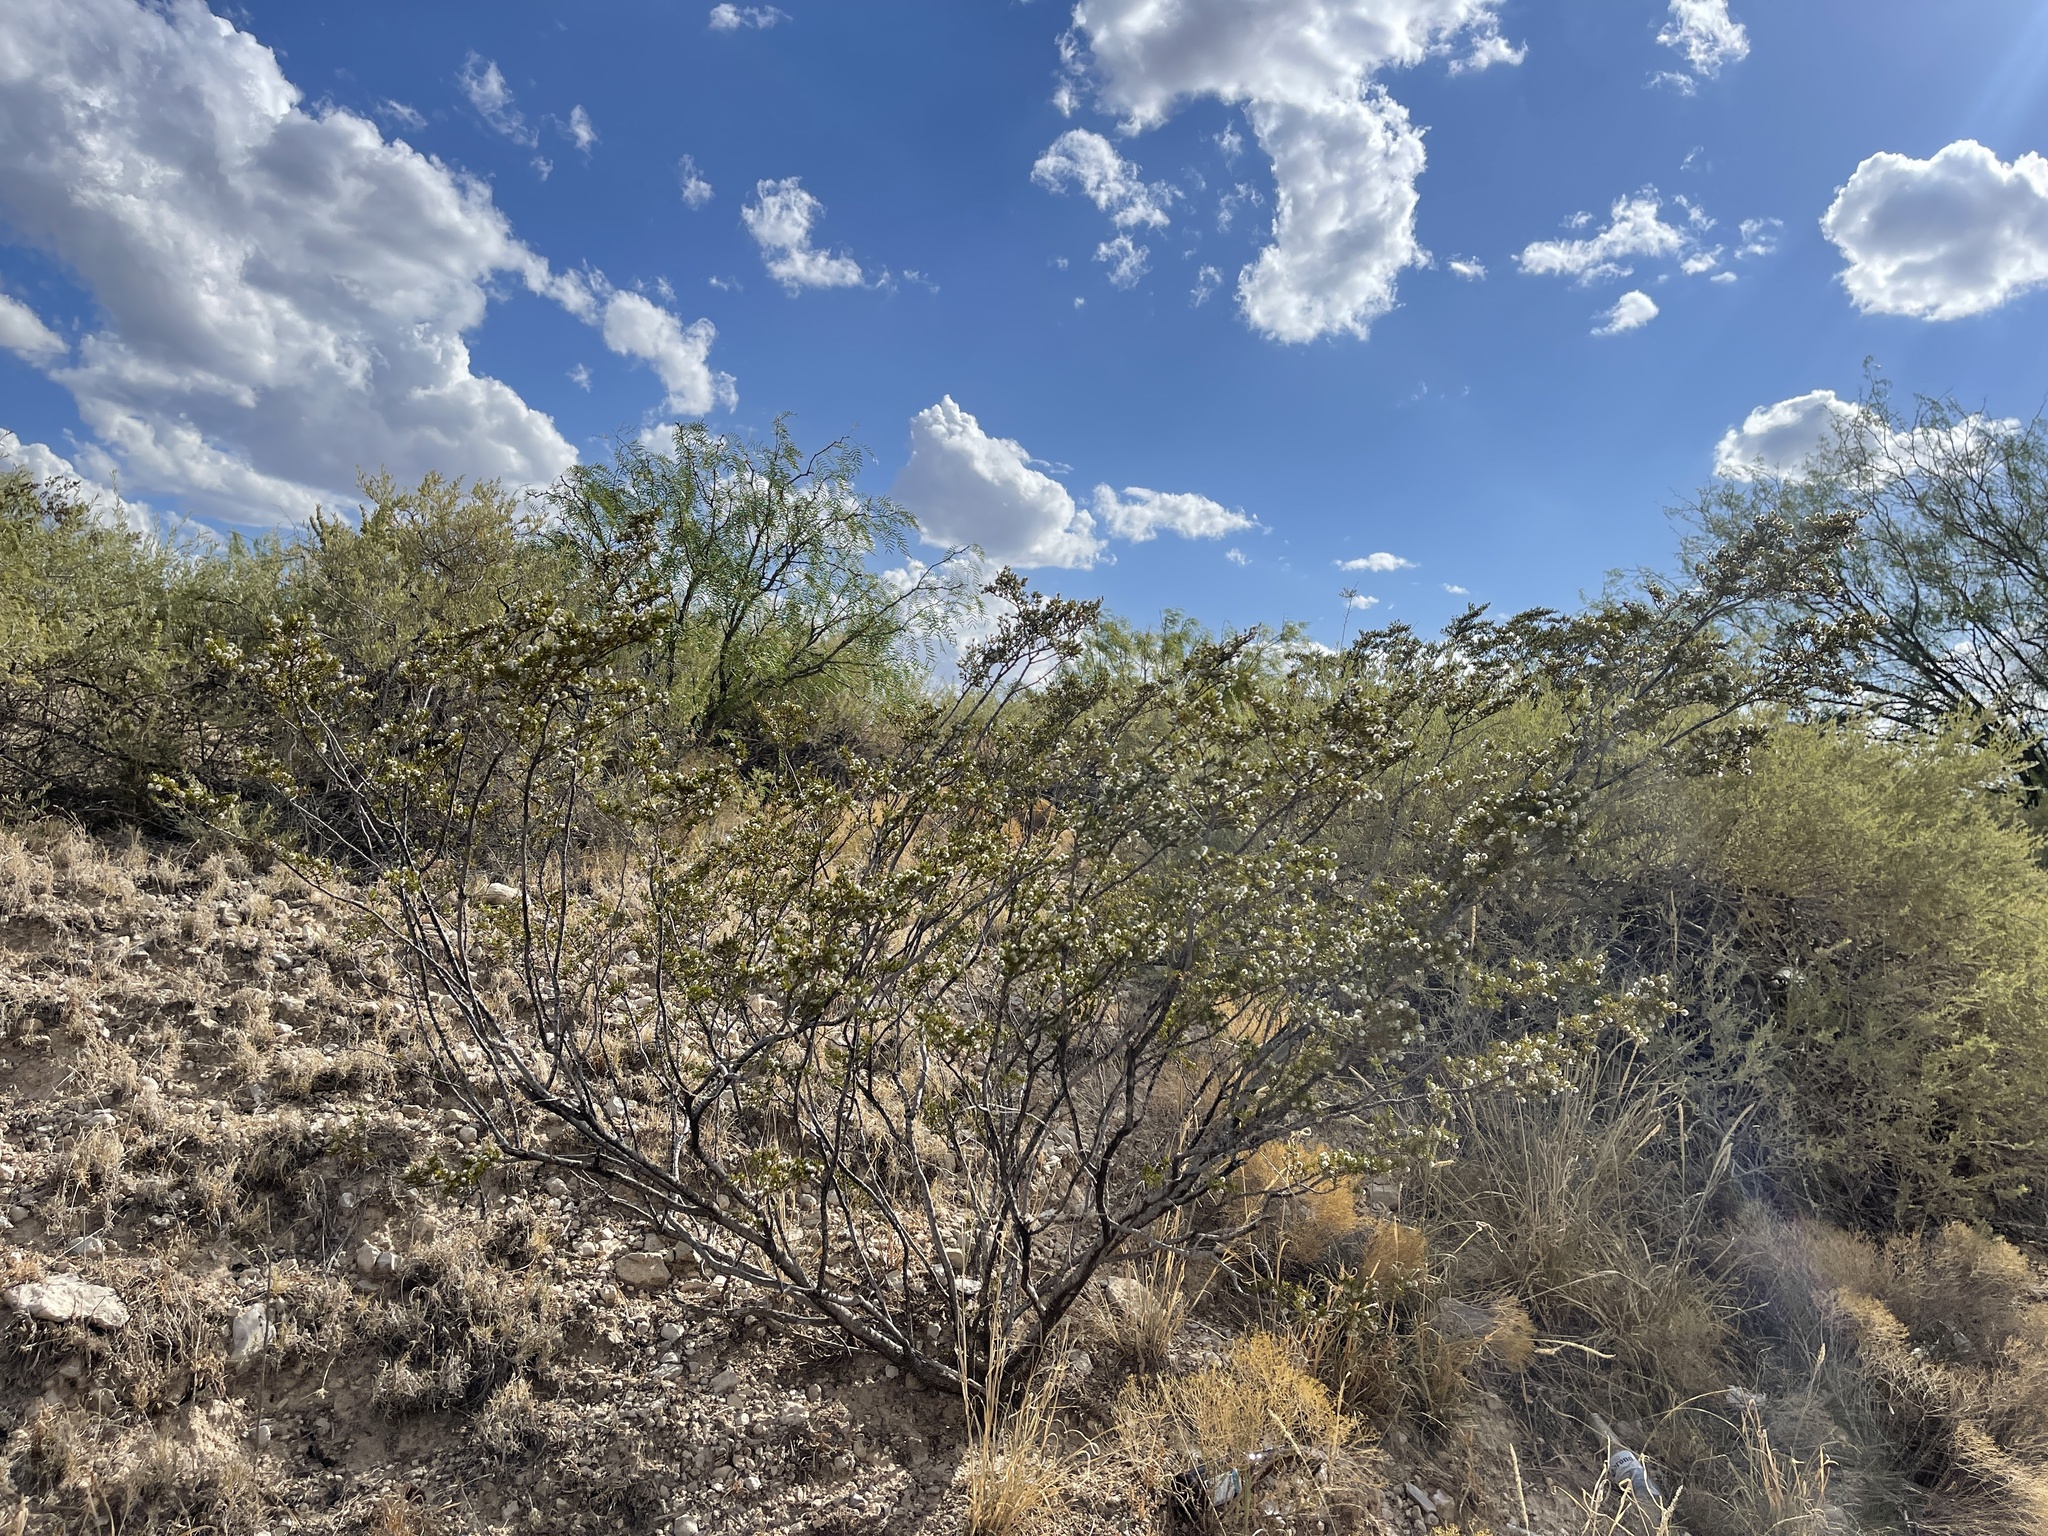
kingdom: Plantae
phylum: Tracheophyta
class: Magnoliopsida
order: Zygophyllales
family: Zygophyllaceae
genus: Larrea
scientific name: Larrea tridentata
